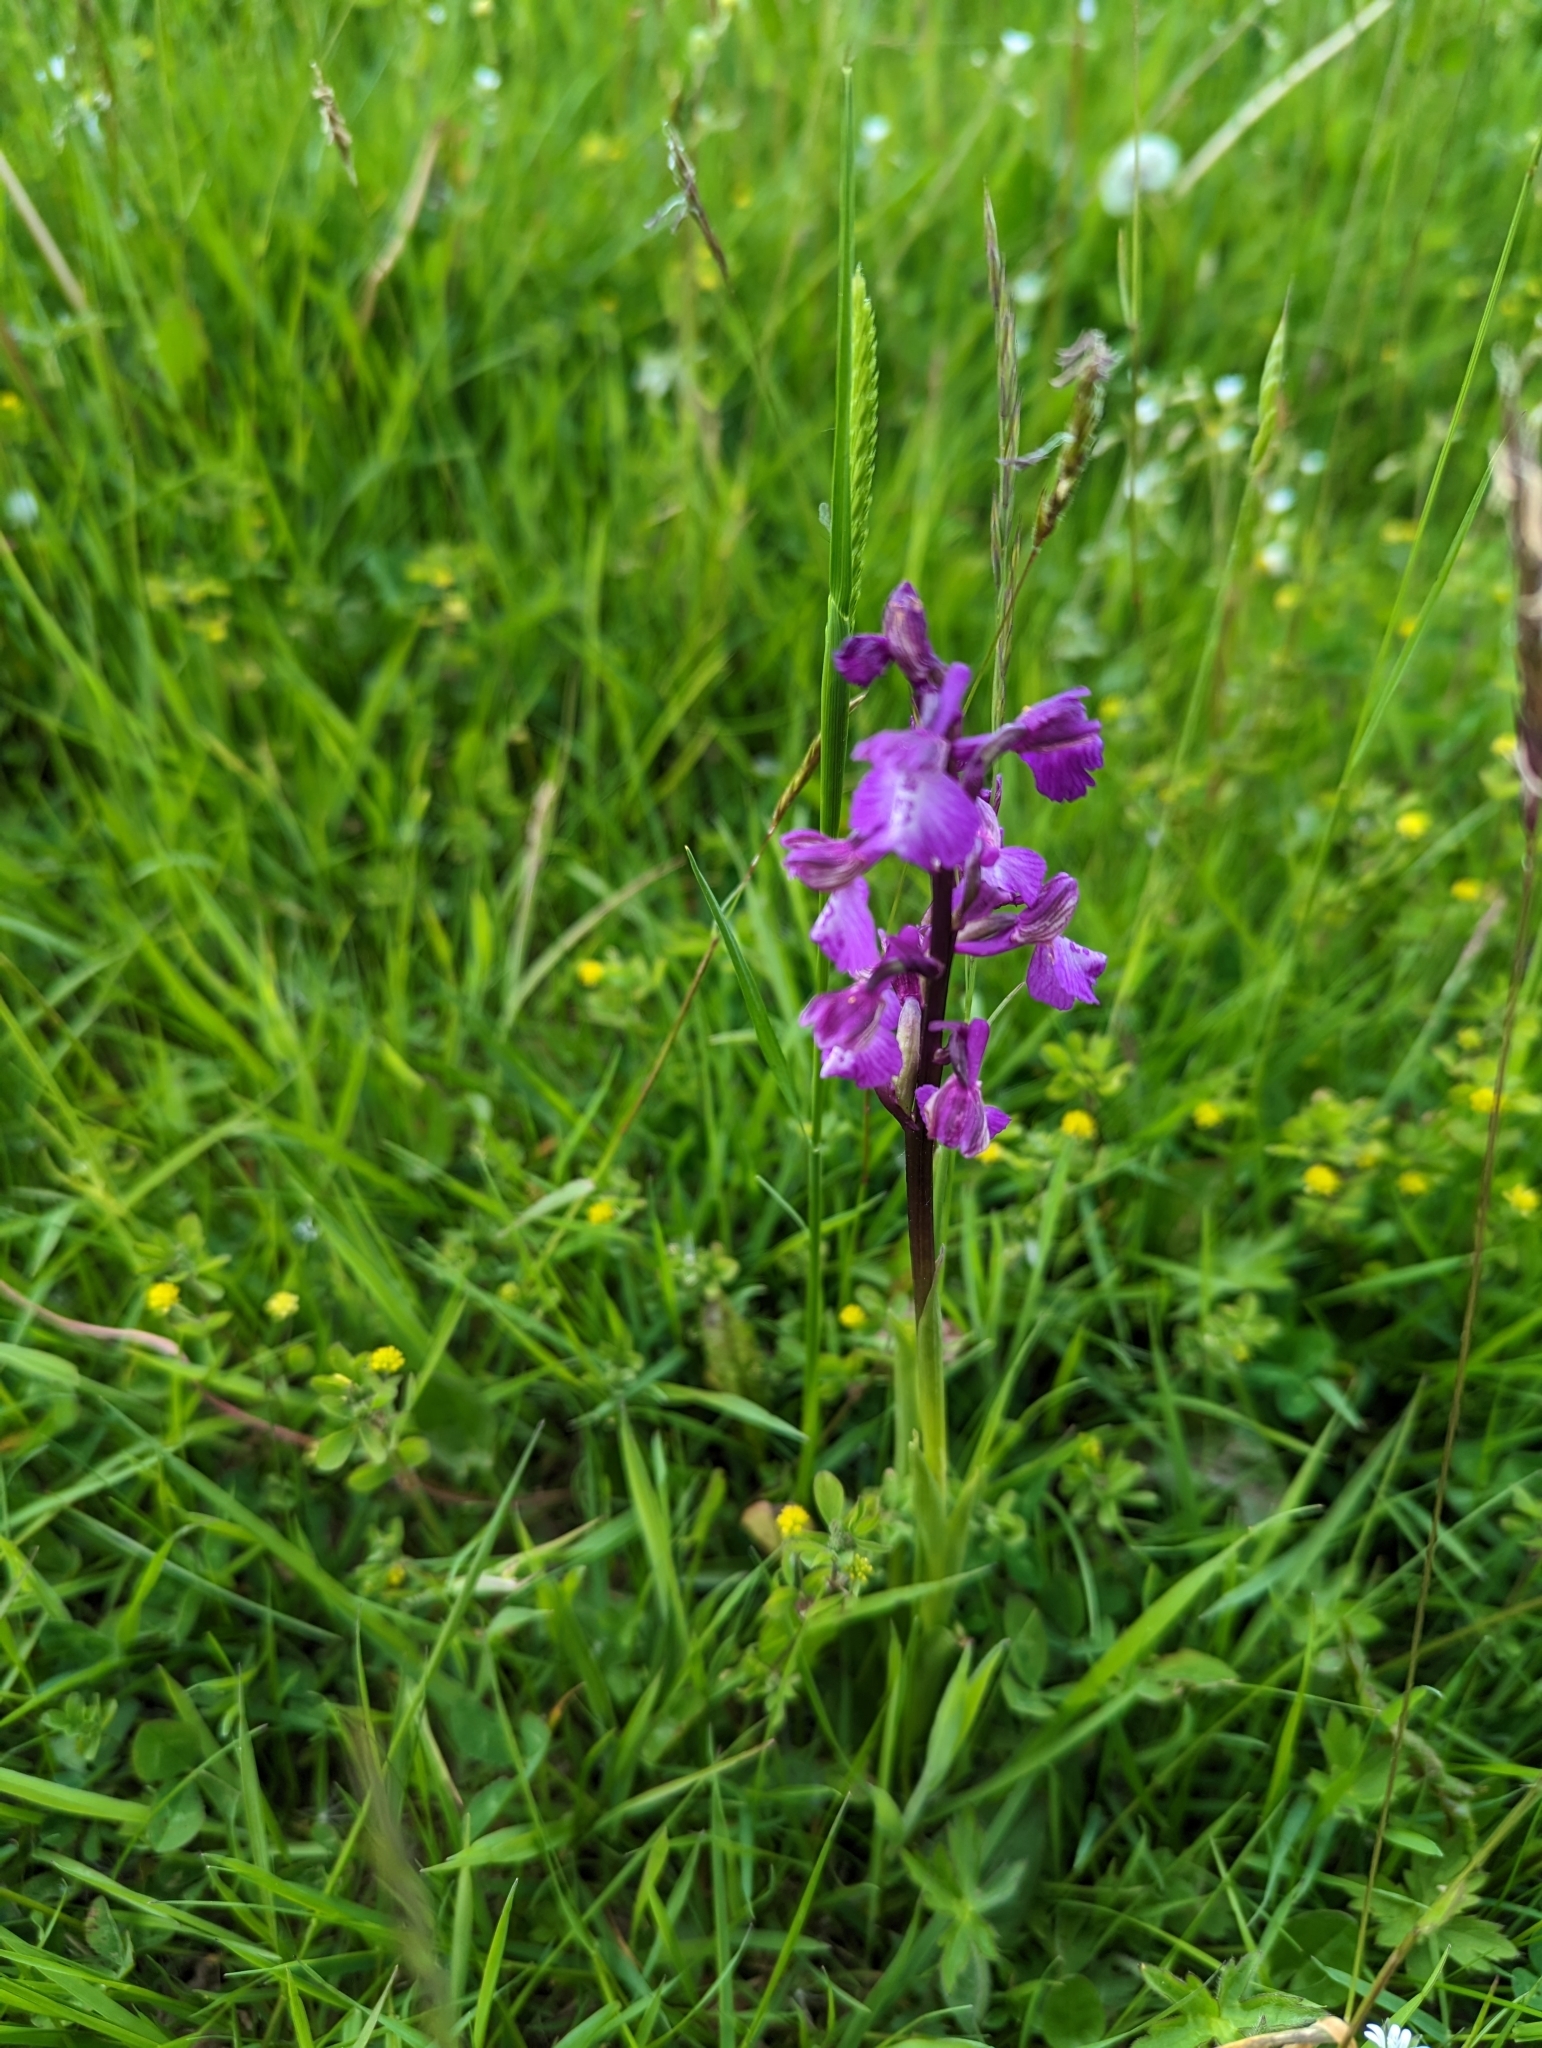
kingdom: Plantae
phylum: Tracheophyta
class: Liliopsida
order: Asparagales
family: Orchidaceae
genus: Anacamptis
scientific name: Anacamptis morio
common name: Green-winged orchid
